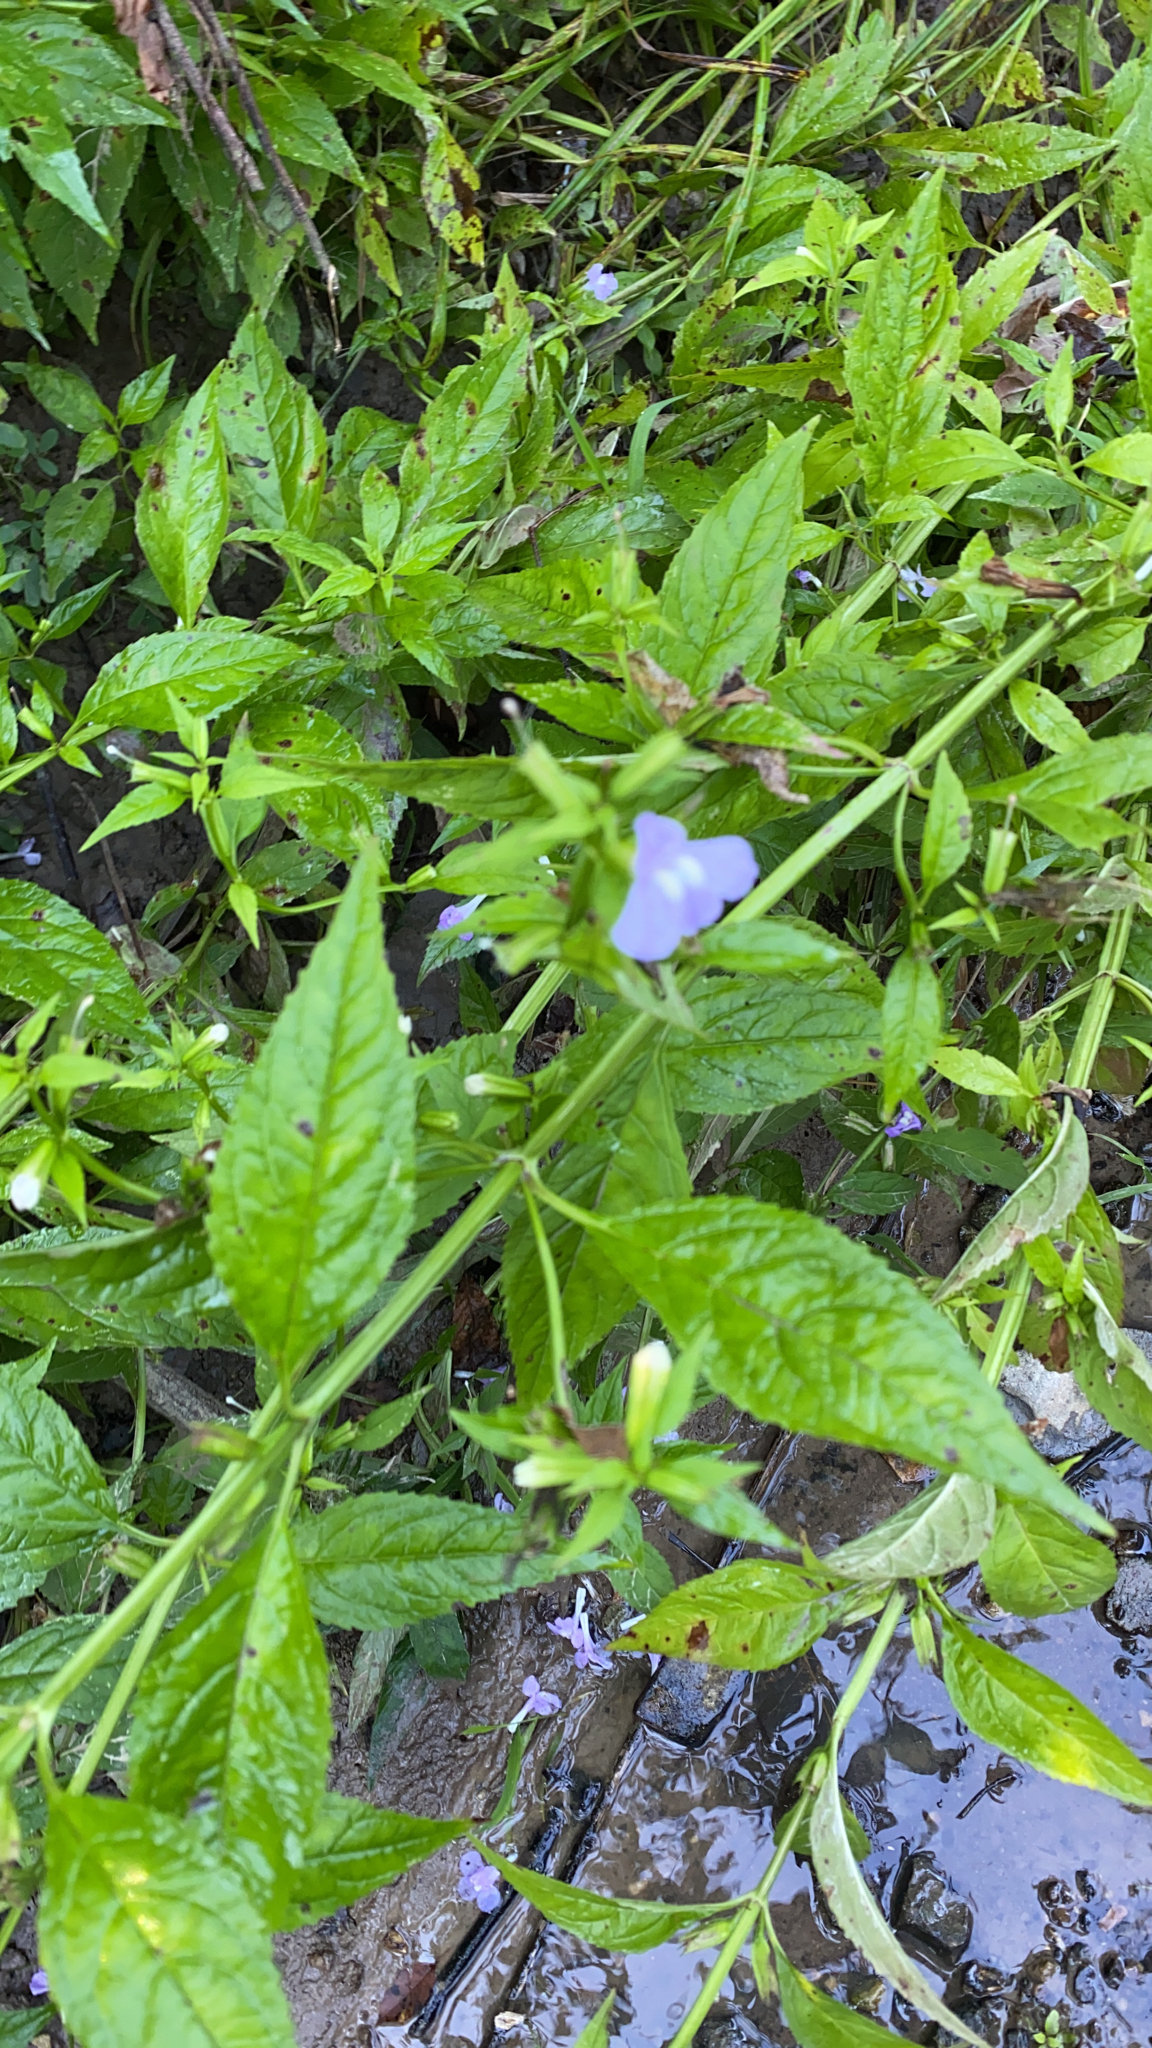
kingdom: Plantae
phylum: Tracheophyta
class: Magnoliopsida
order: Lamiales
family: Phrymaceae
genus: Mimulus
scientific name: Mimulus alatus
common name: Sharp-wing monkey-flower
